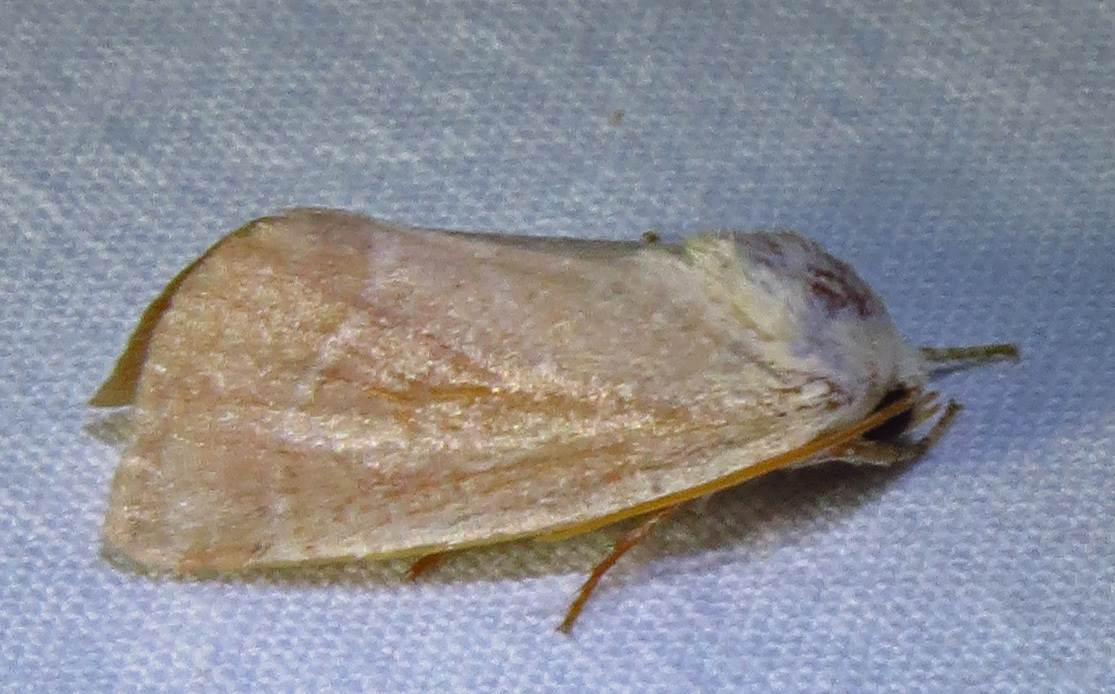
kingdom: Animalia
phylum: Arthropoda
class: Insecta
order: Lepidoptera
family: Noctuidae
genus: Cosmia
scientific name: Cosmia calami
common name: American dun-bar moth
